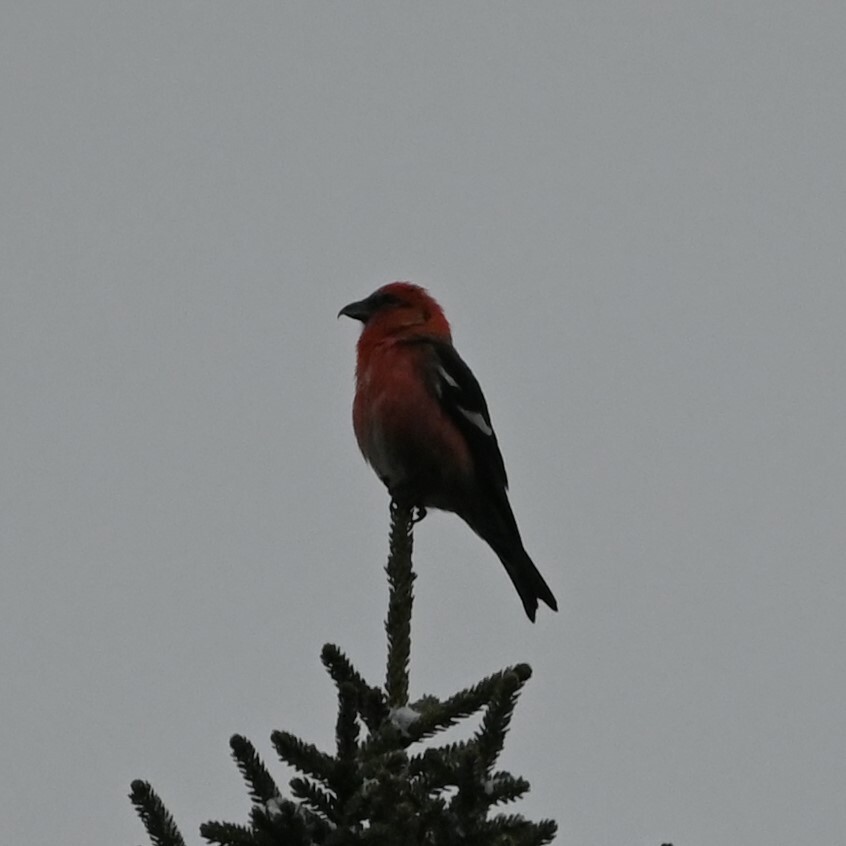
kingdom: Animalia
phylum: Chordata
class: Aves
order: Passeriformes
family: Fringillidae
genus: Loxia
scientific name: Loxia leucoptera
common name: Two-barred crossbill
